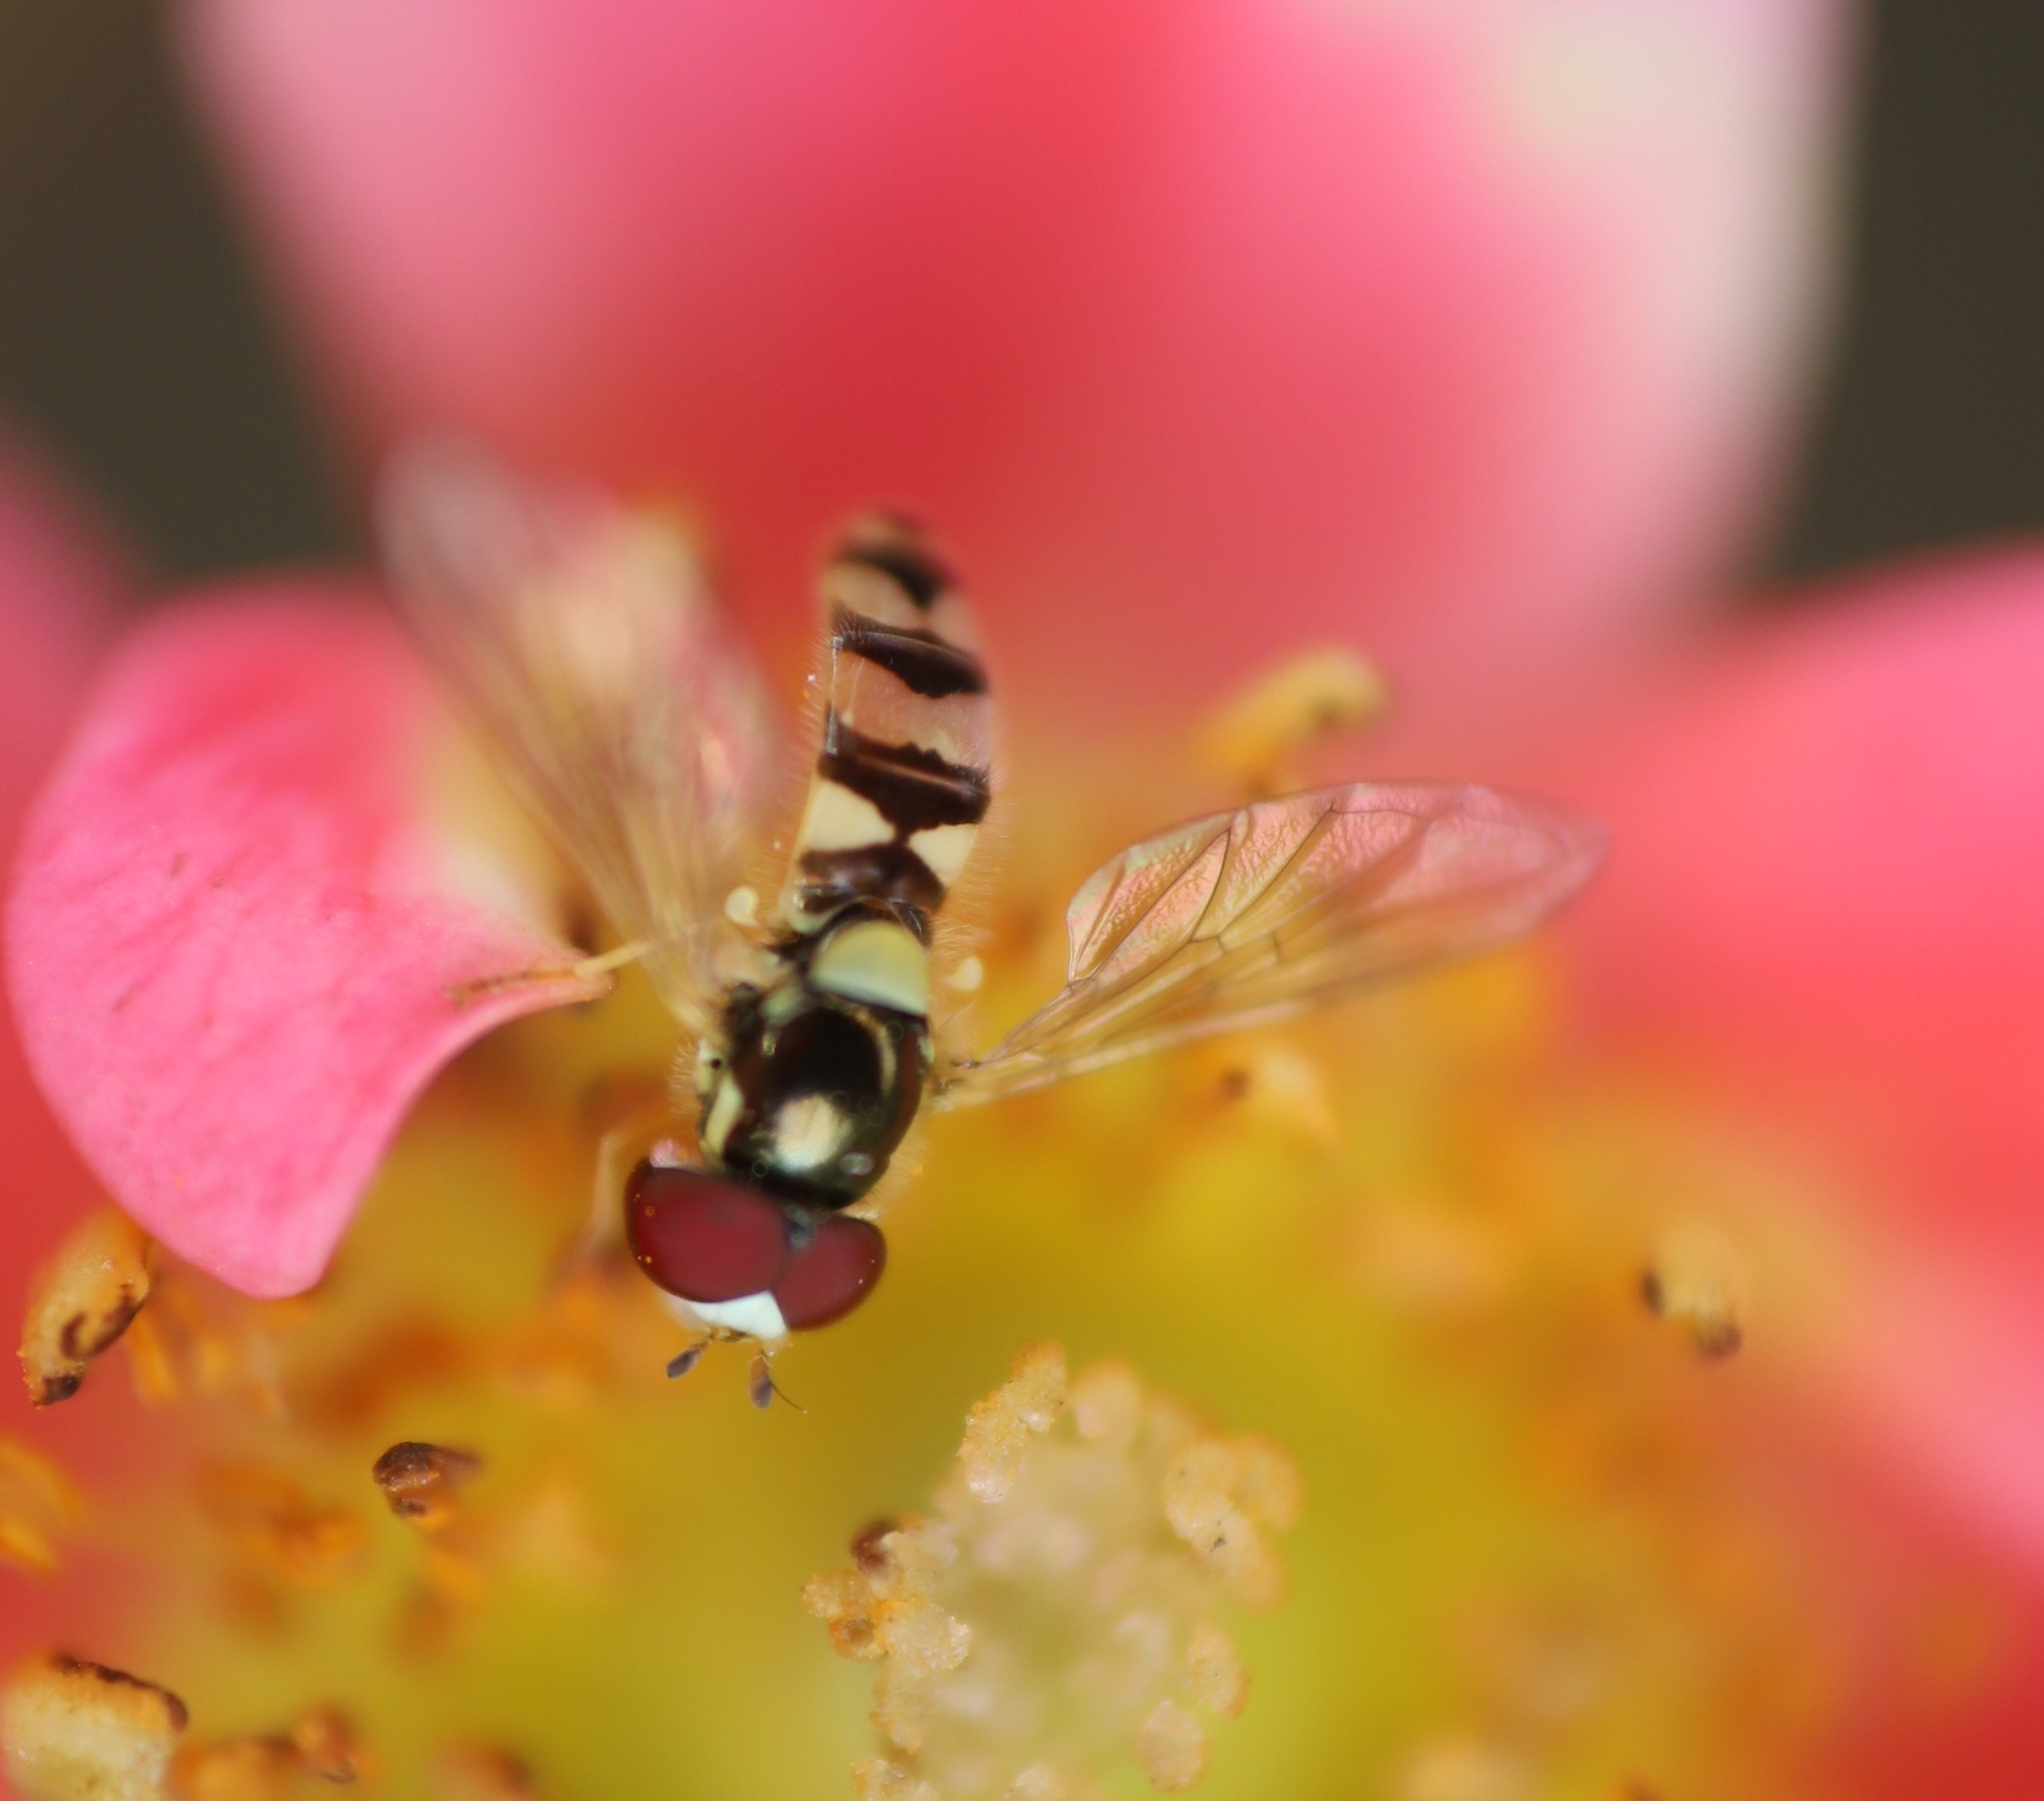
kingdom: Animalia
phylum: Arthropoda
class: Insecta
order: Diptera
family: Syrphidae
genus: Allograpta
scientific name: Allograpta pulchra
